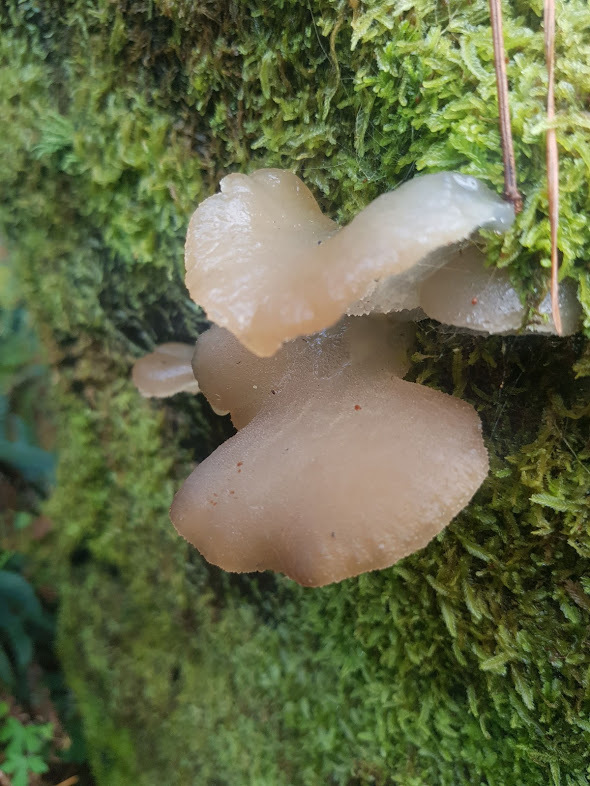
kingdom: Fungi
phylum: Basidiomycota
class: Agaricomycetes
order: Auriculariales
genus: Pseudohydnum
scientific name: Pseudohydnum gelatinosum
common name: Jelly tongue
